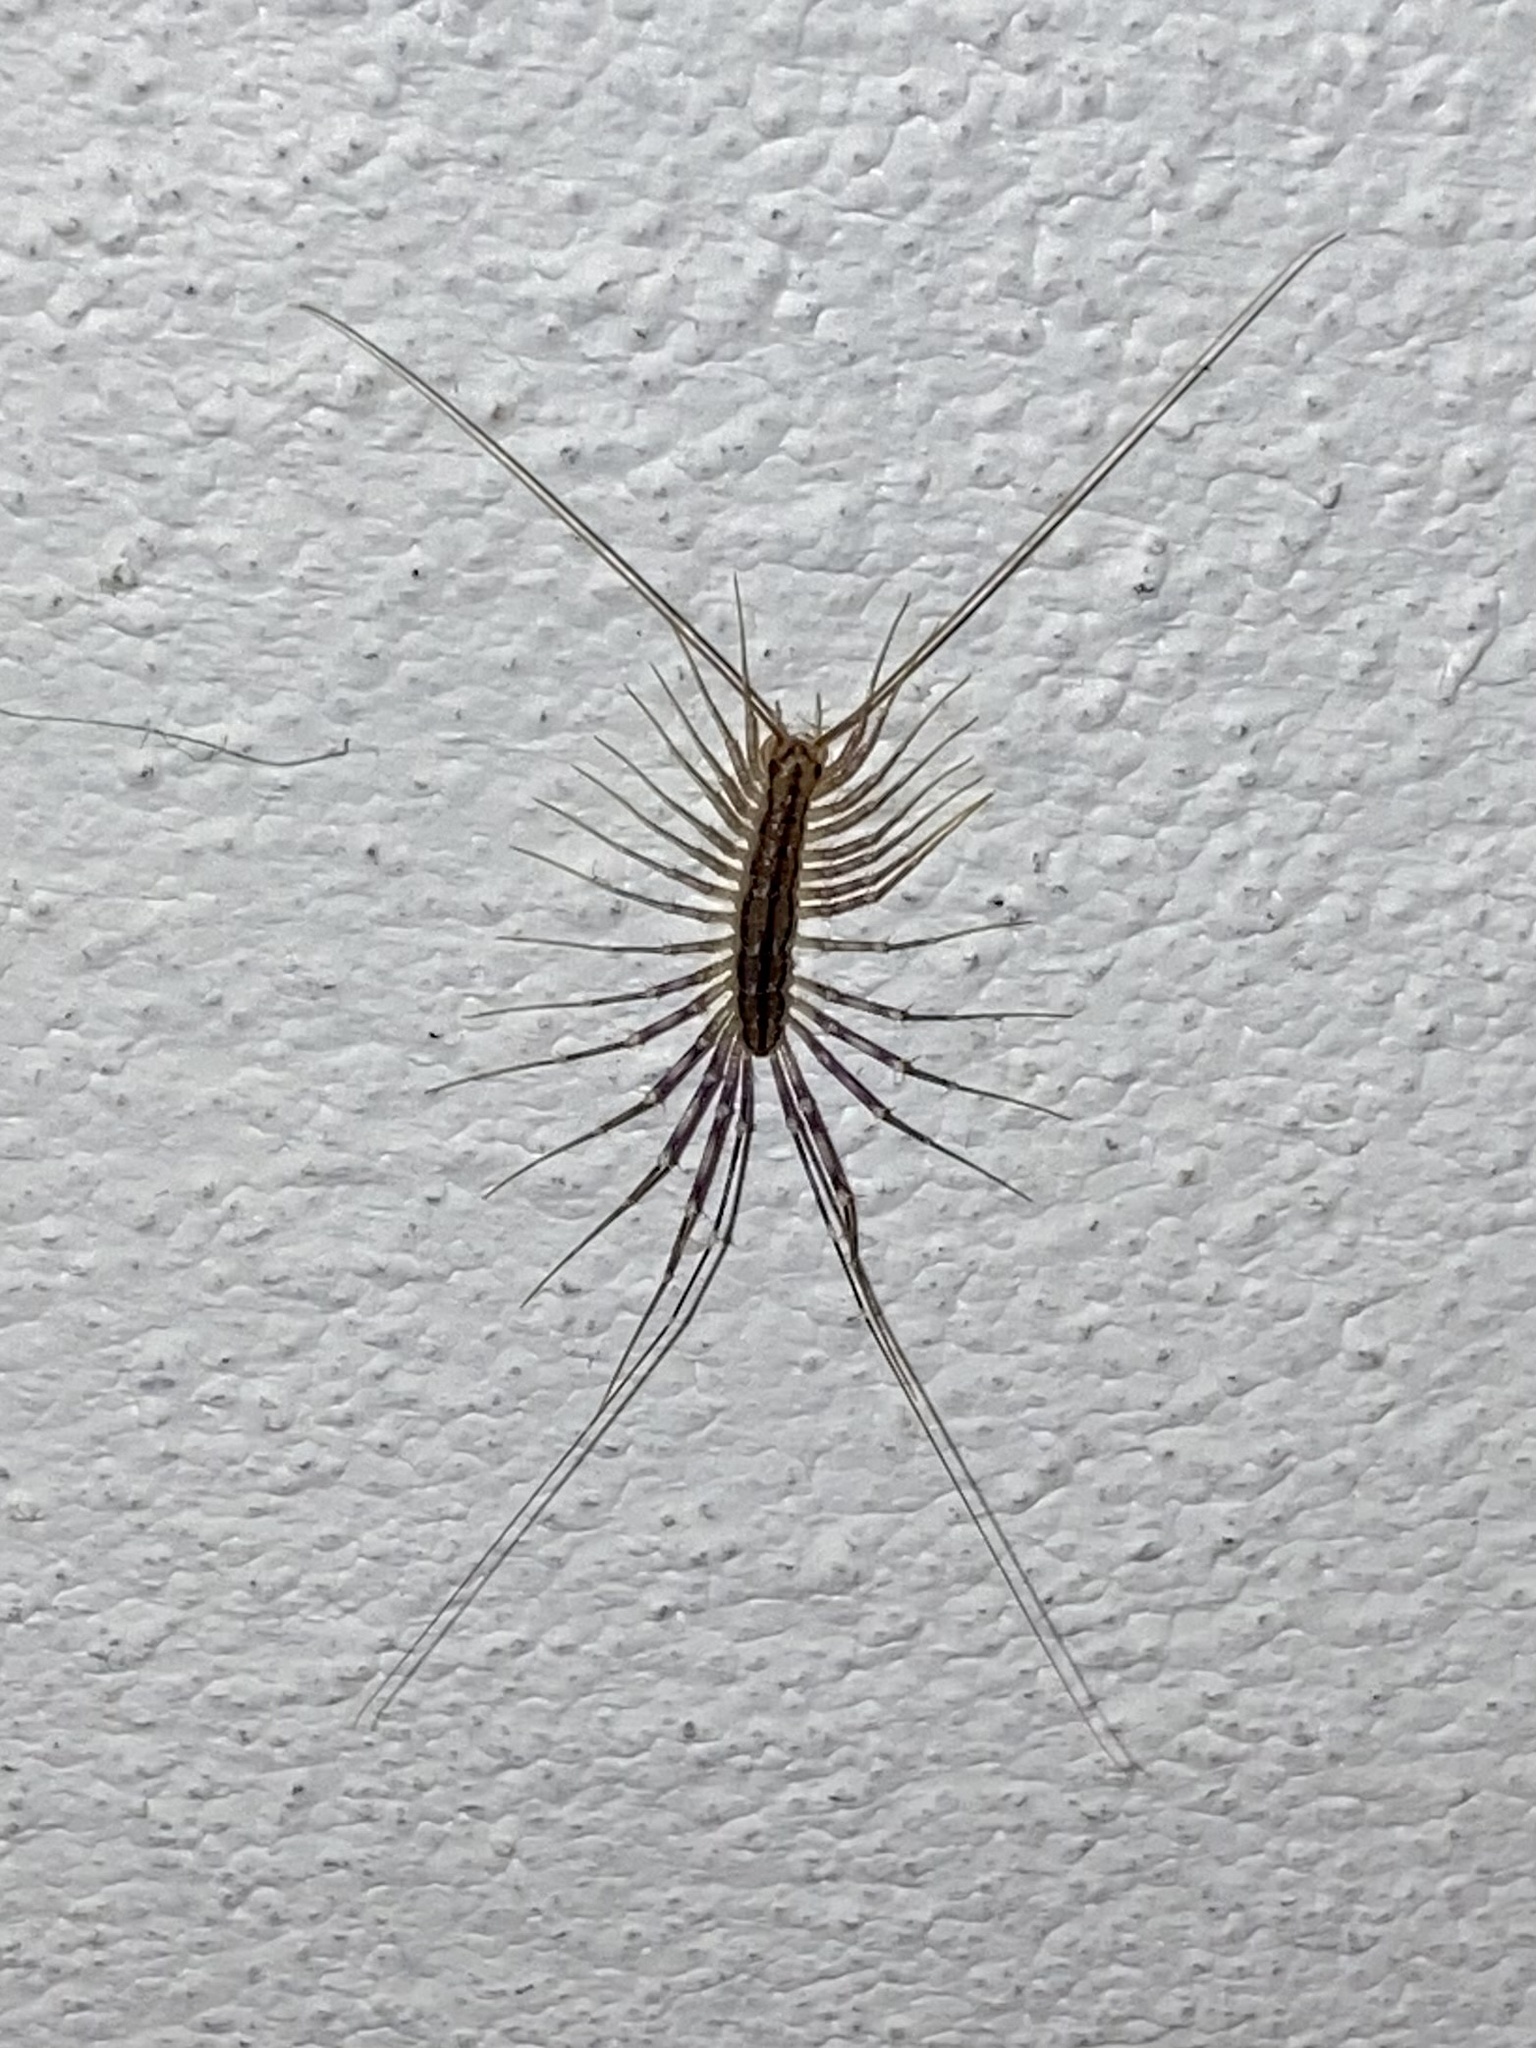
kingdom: Animalia
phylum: Arthropoda
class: Chilopoda
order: Scutigeromorpha
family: Scutigeridae
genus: Scutigera
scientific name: Scutigera coleoptrata
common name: House centipede
